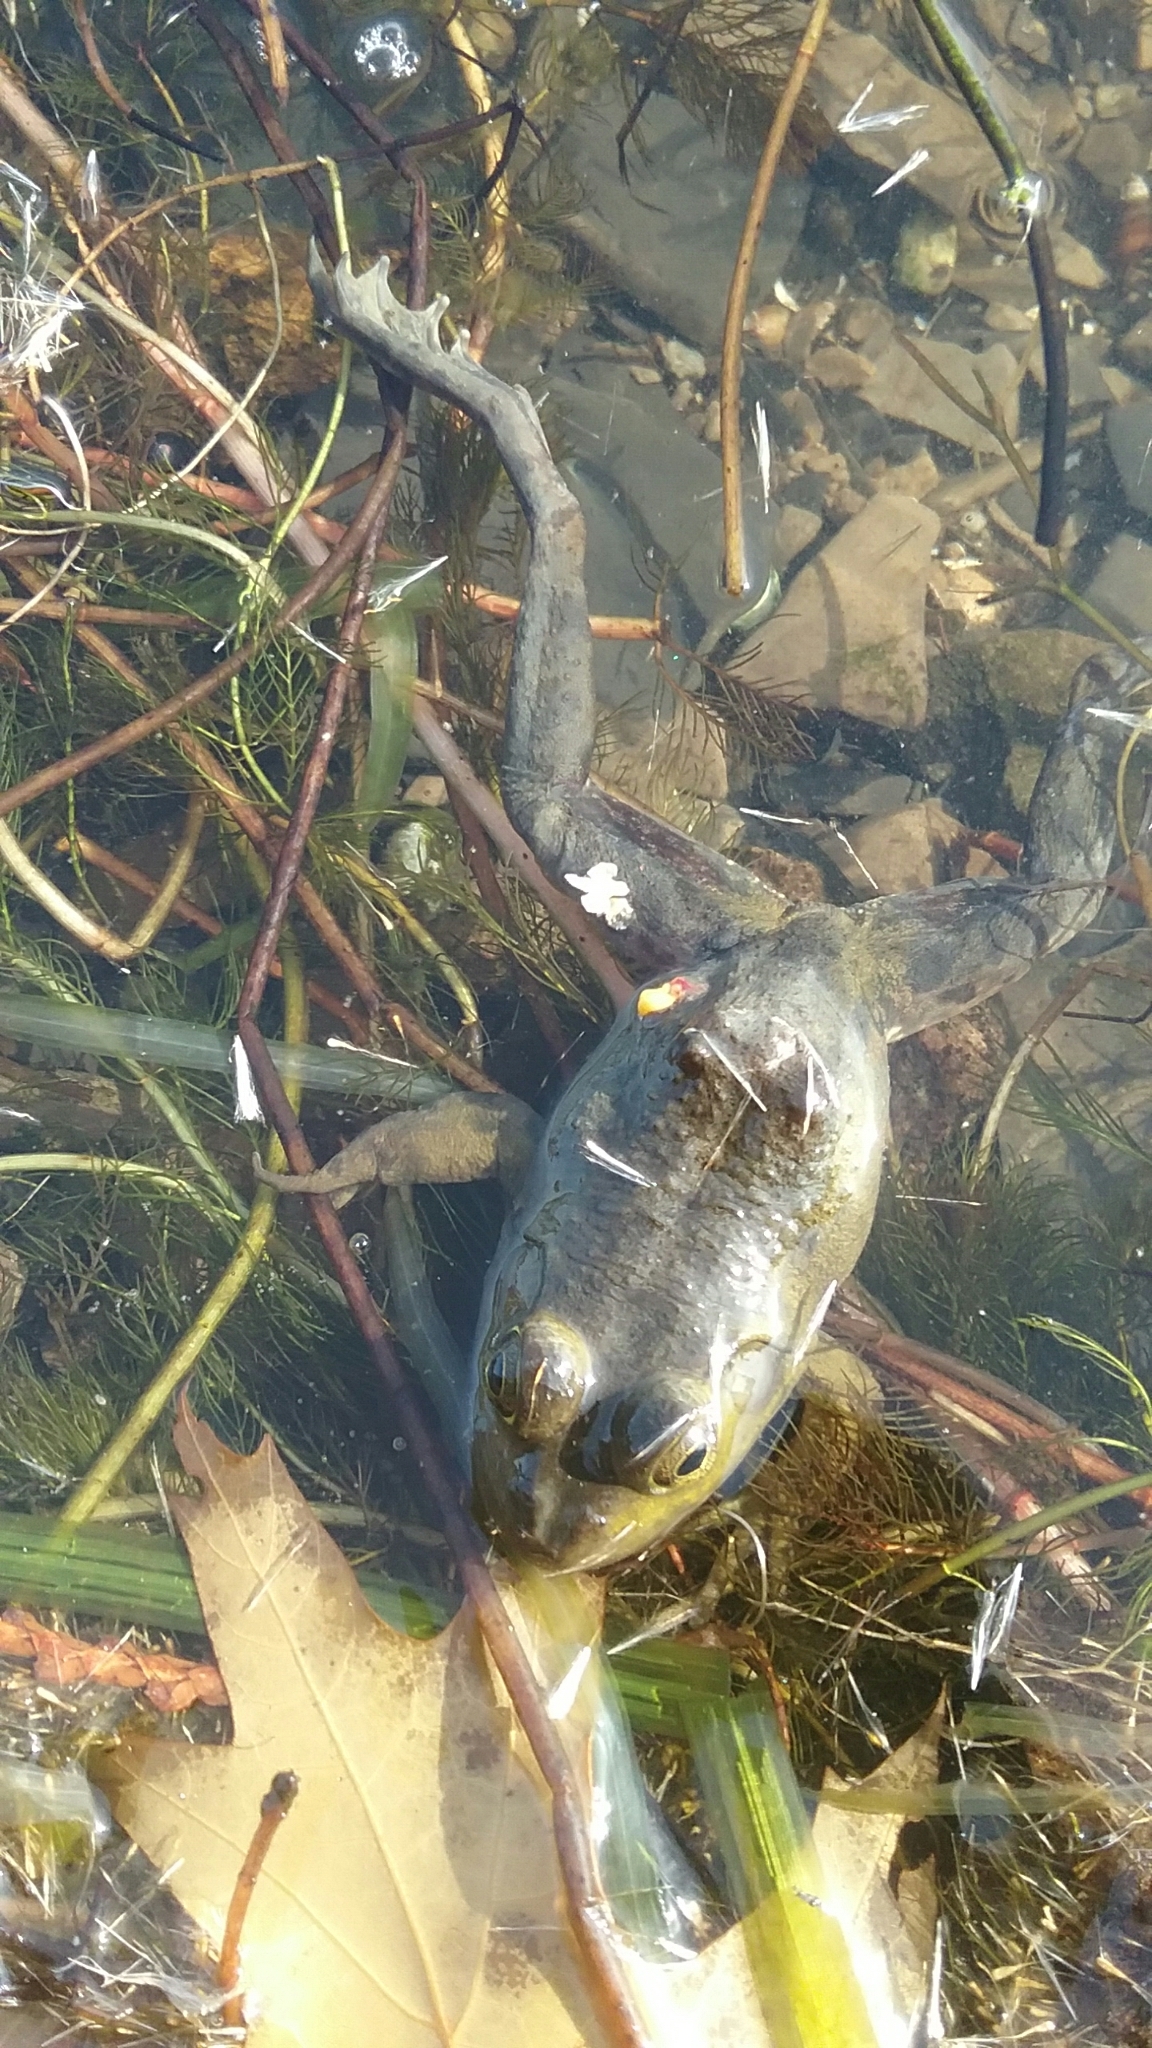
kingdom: Animalia
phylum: Chordata
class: Amphibia
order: Anura
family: Ranidae
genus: Lithobates
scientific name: Lithobates catesbeianus
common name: American bullfrog
